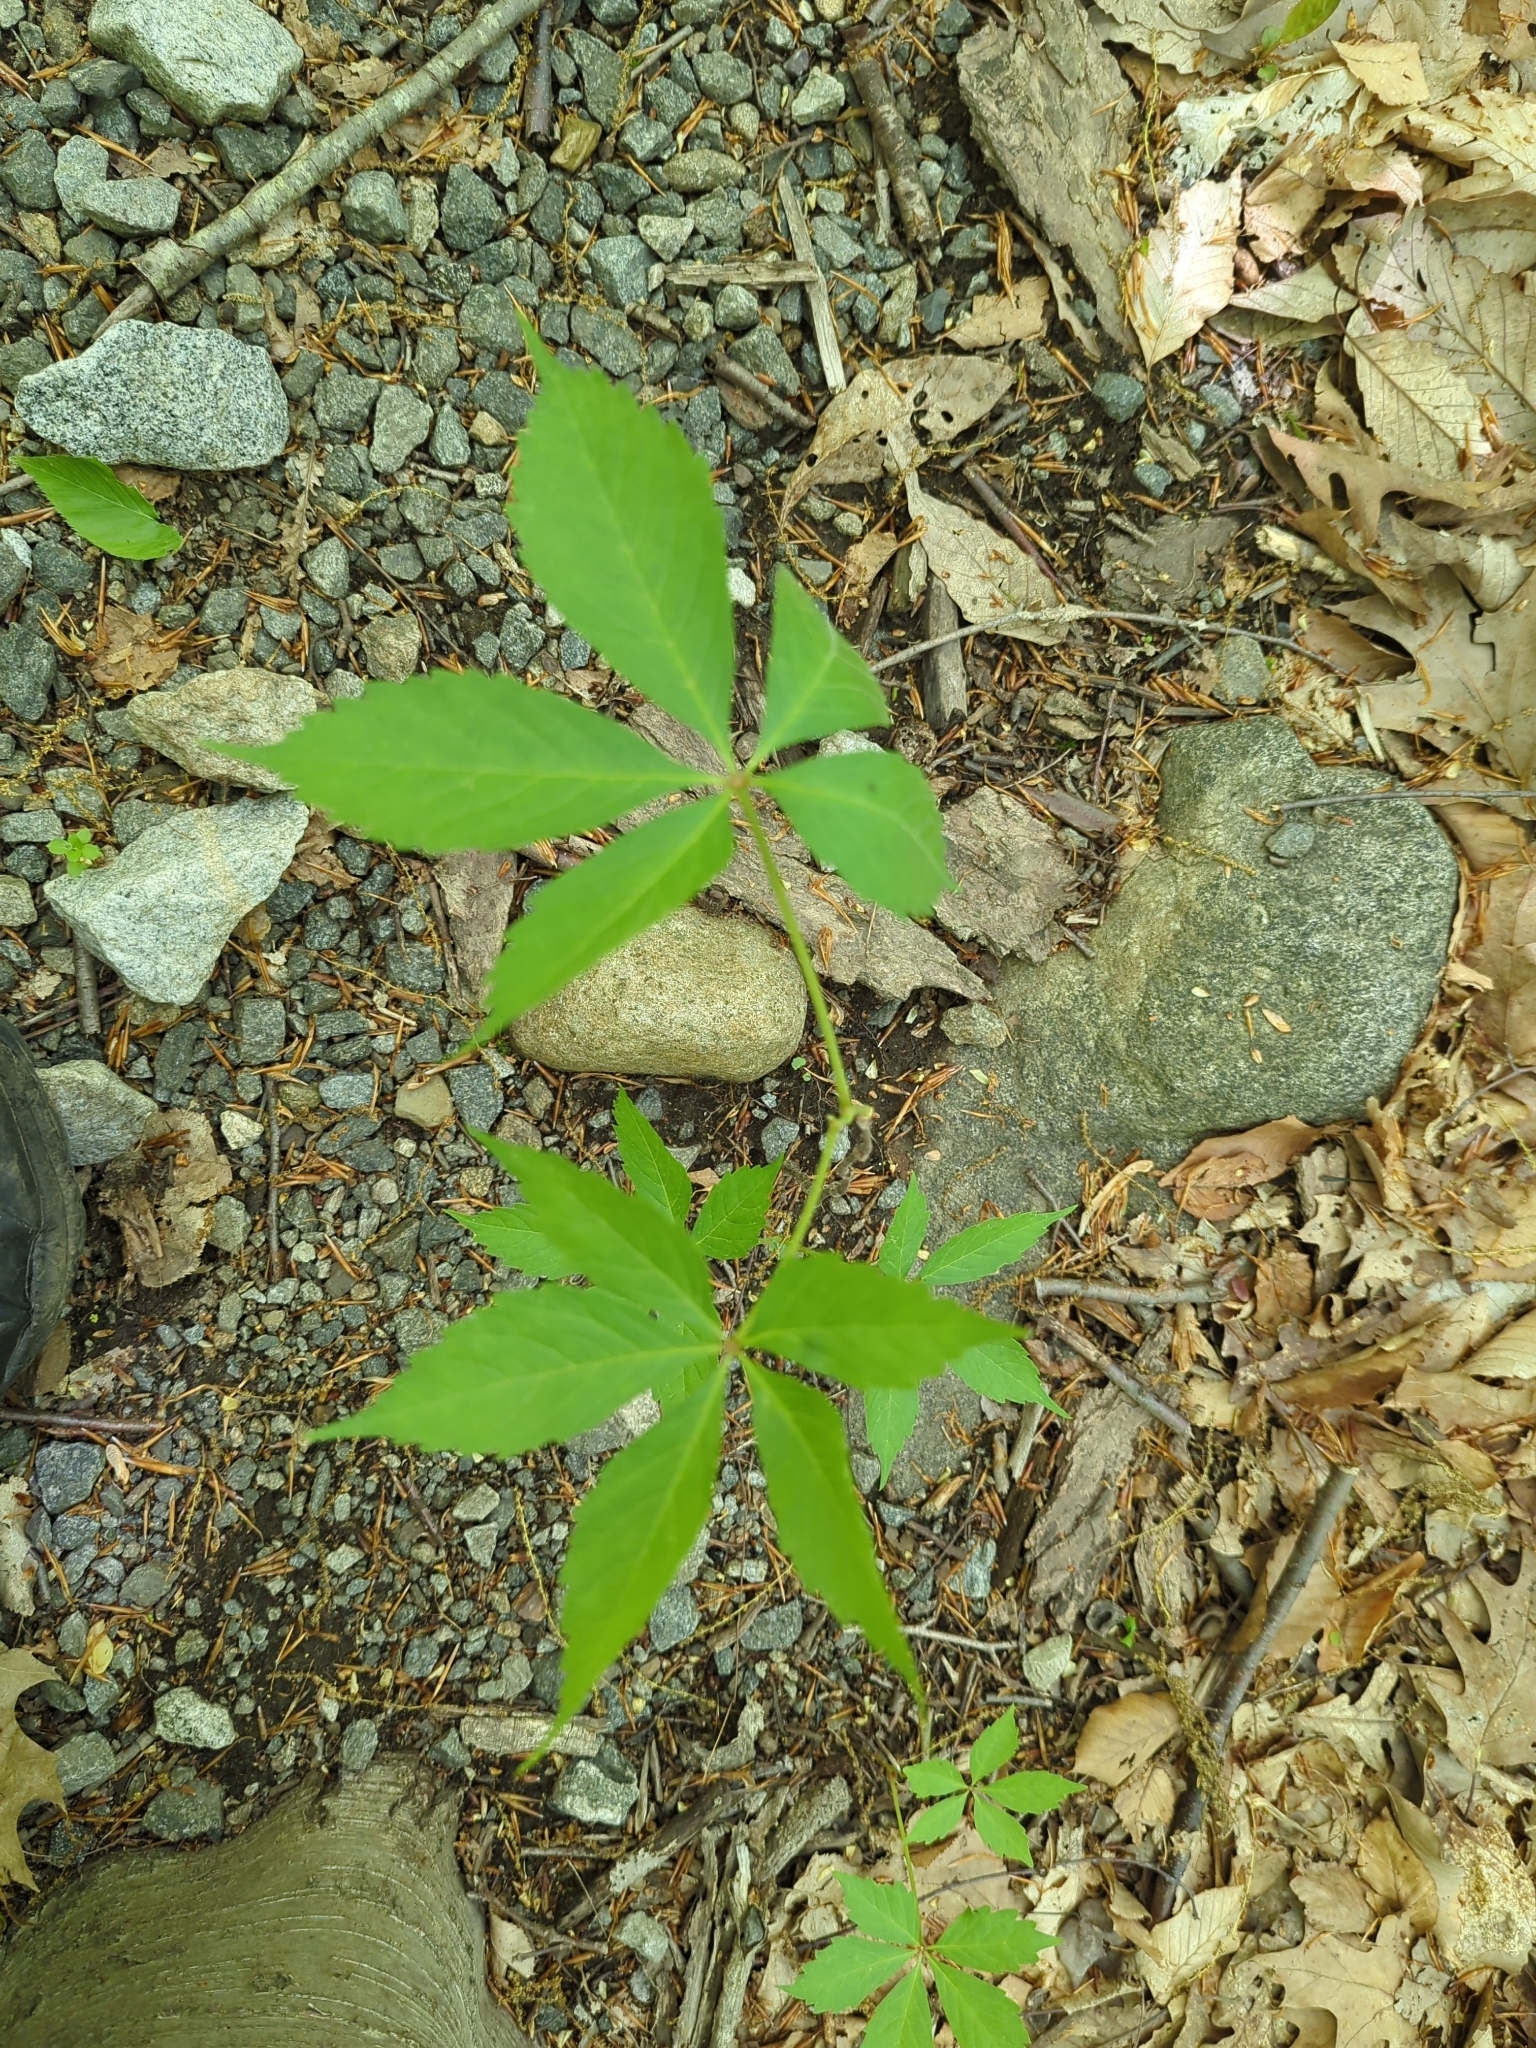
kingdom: Plantae
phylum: Tracheophyta
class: Magnoliopsida
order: Vitales
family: Vitaceae
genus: Parthenocissus
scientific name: Parthenocissus quinquefolia
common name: Virginia-creeper
